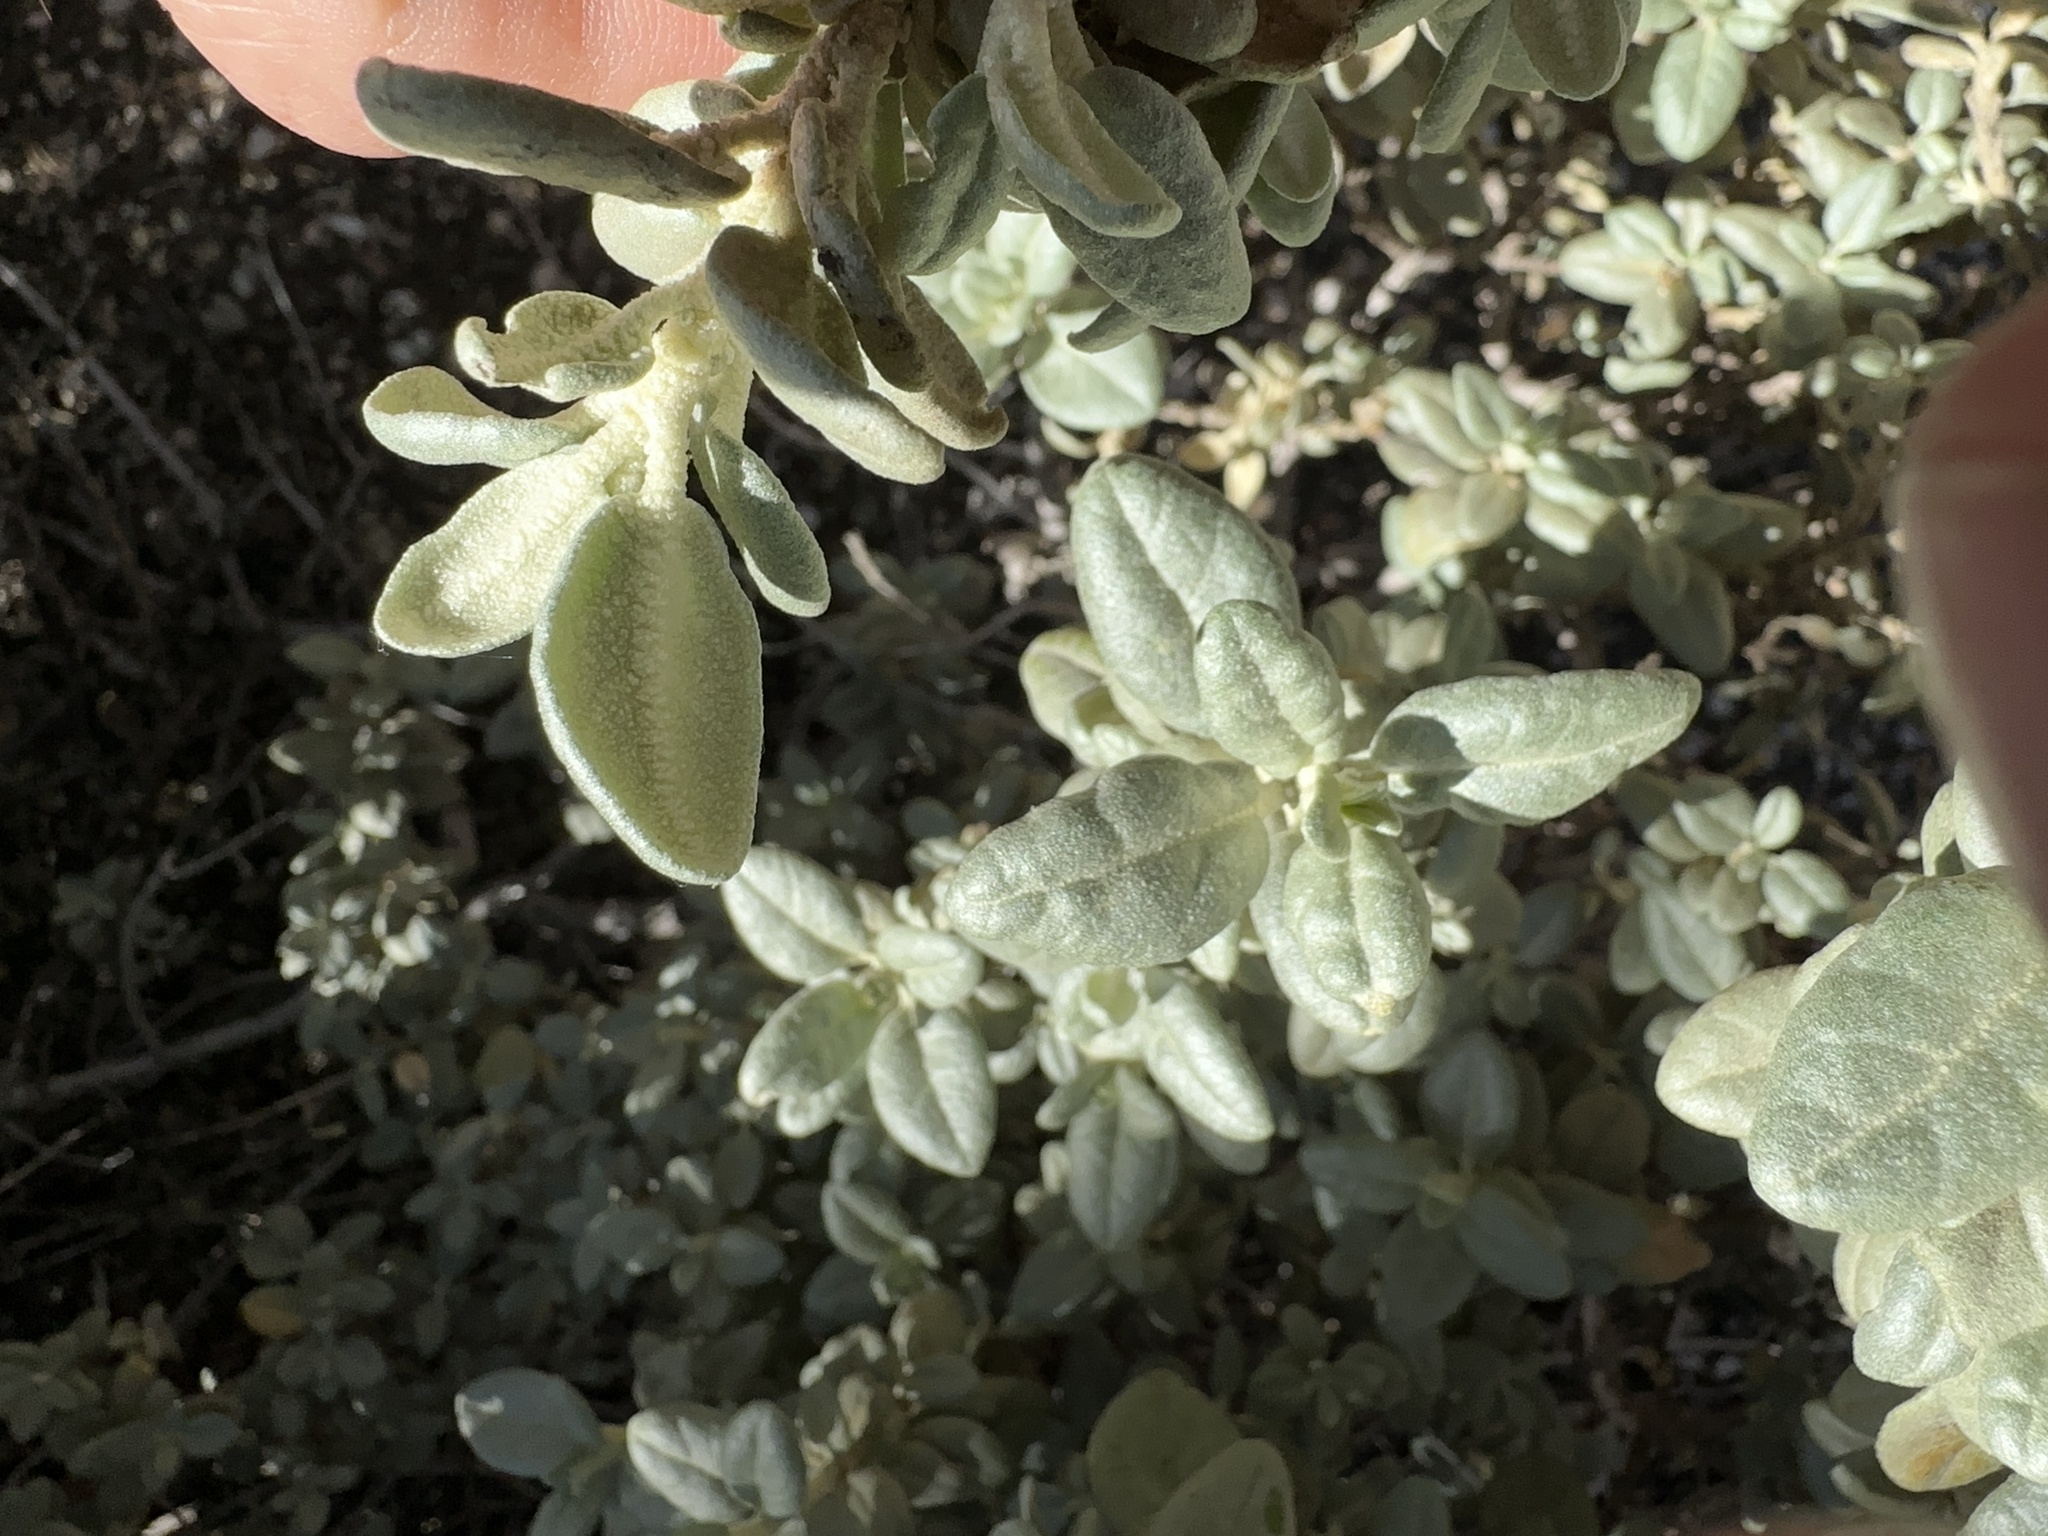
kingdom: Plantae
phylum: Tracheophyta
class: Magnoliopsida
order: Rosales
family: Elaeagnaceae
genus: Shepherdia
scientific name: Shepherdia rotundifolia
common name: Silverscale
